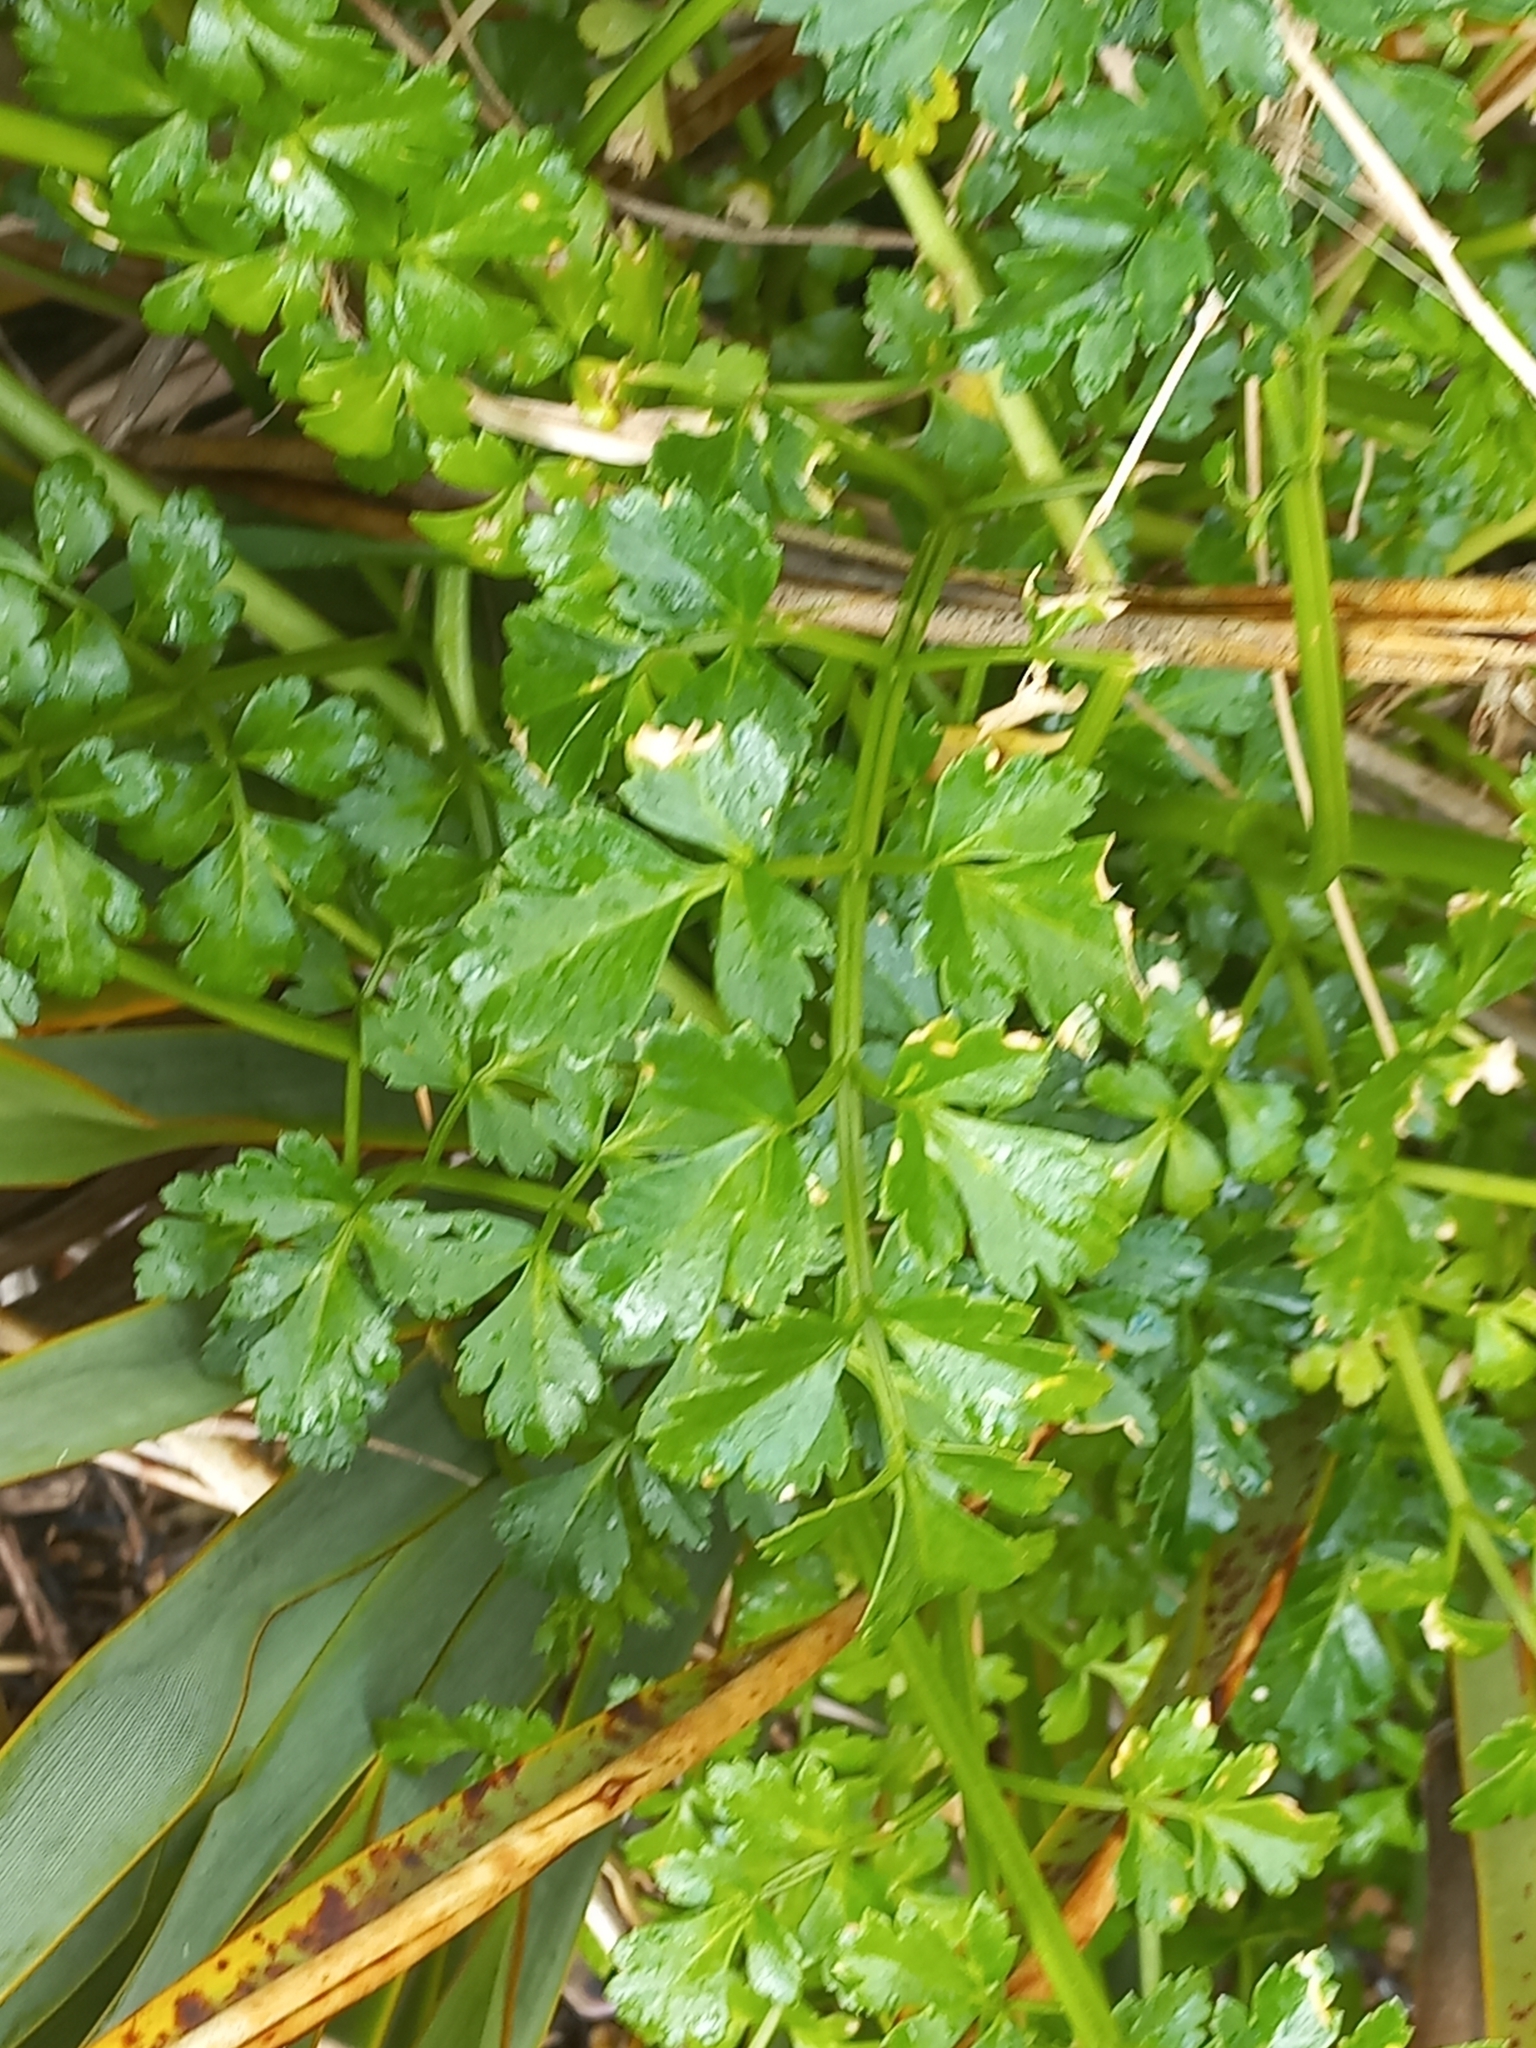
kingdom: Plantae
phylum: Tracheophyta
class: Magnoliopsida
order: Apiales
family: Apiaceae
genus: Apium
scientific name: Apium prostratum
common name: Prostrate marshwort
